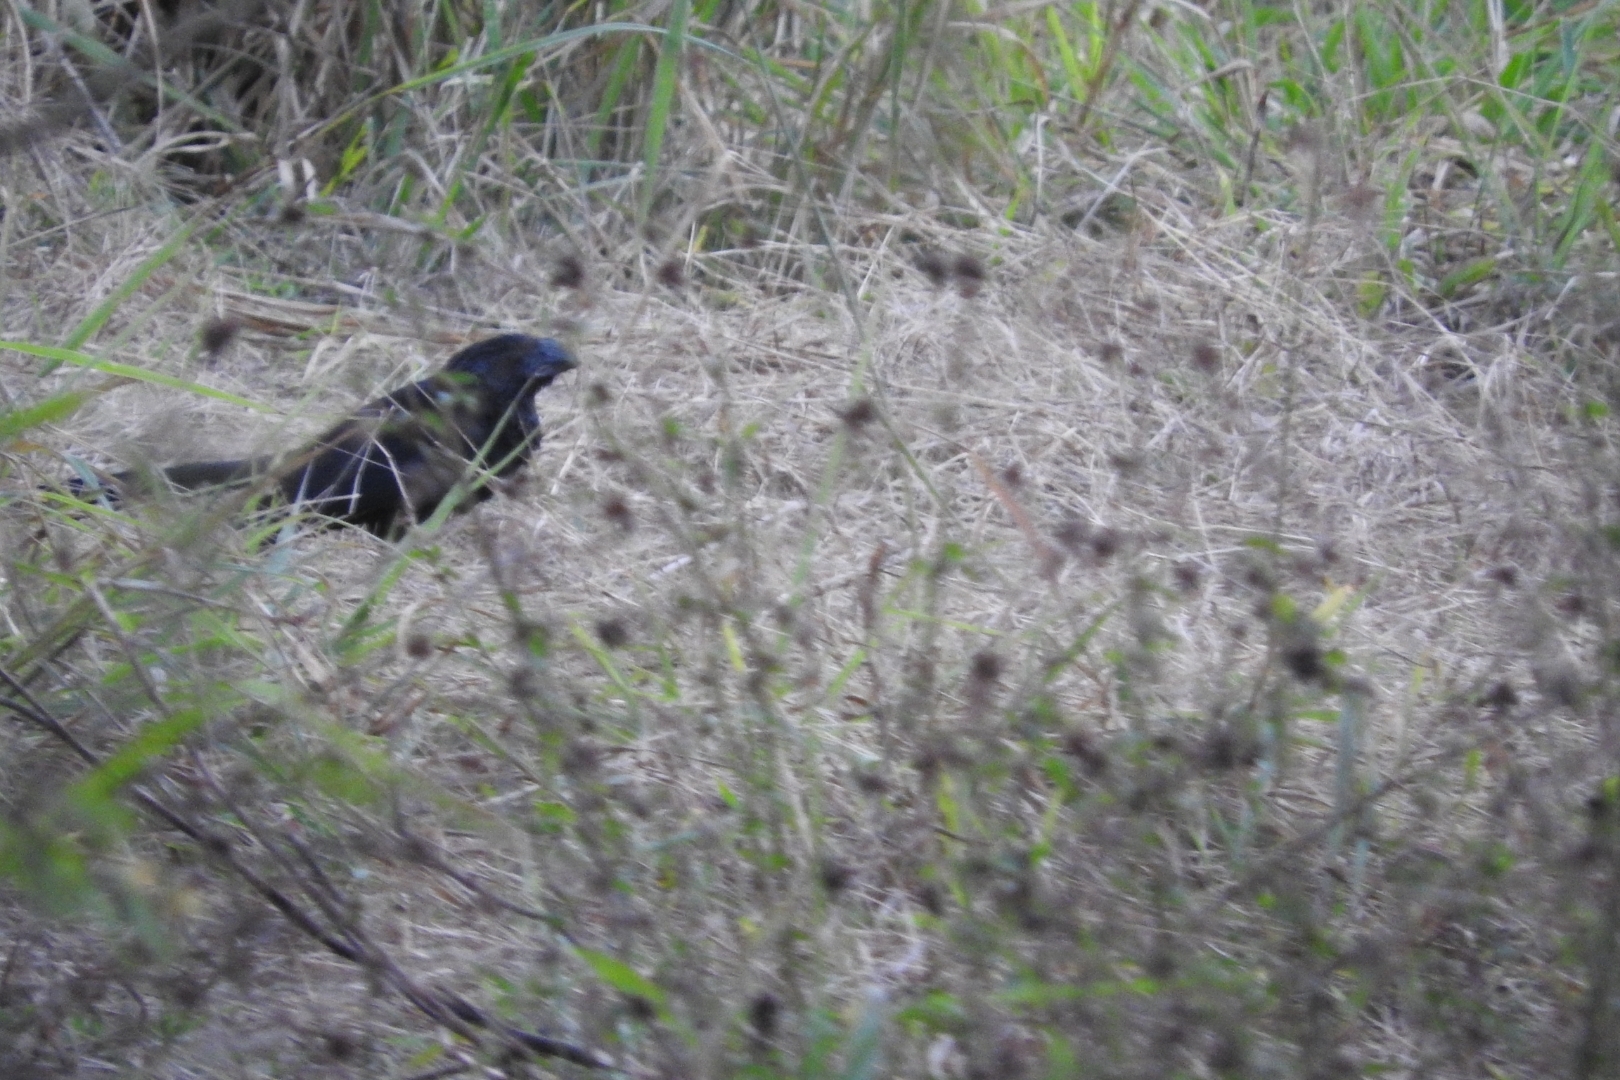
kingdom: Animalia
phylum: Chordata
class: Aves
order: Cuculiformes
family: Cuculidae
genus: Crotophaga
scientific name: Crotophaga sulcirostris
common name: Groove-billed ani
